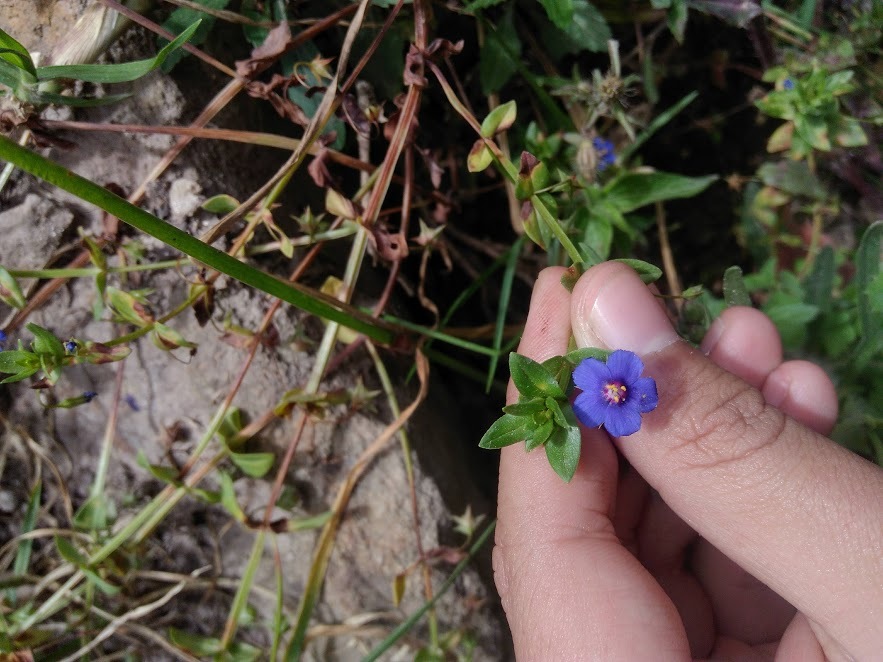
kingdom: Plantae
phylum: Tracheophyta
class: Magnoliopsida
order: Ericales
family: Primulaceae
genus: Lysimachia
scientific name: Lysimachia arvensis
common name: Scarlet pimpernel
